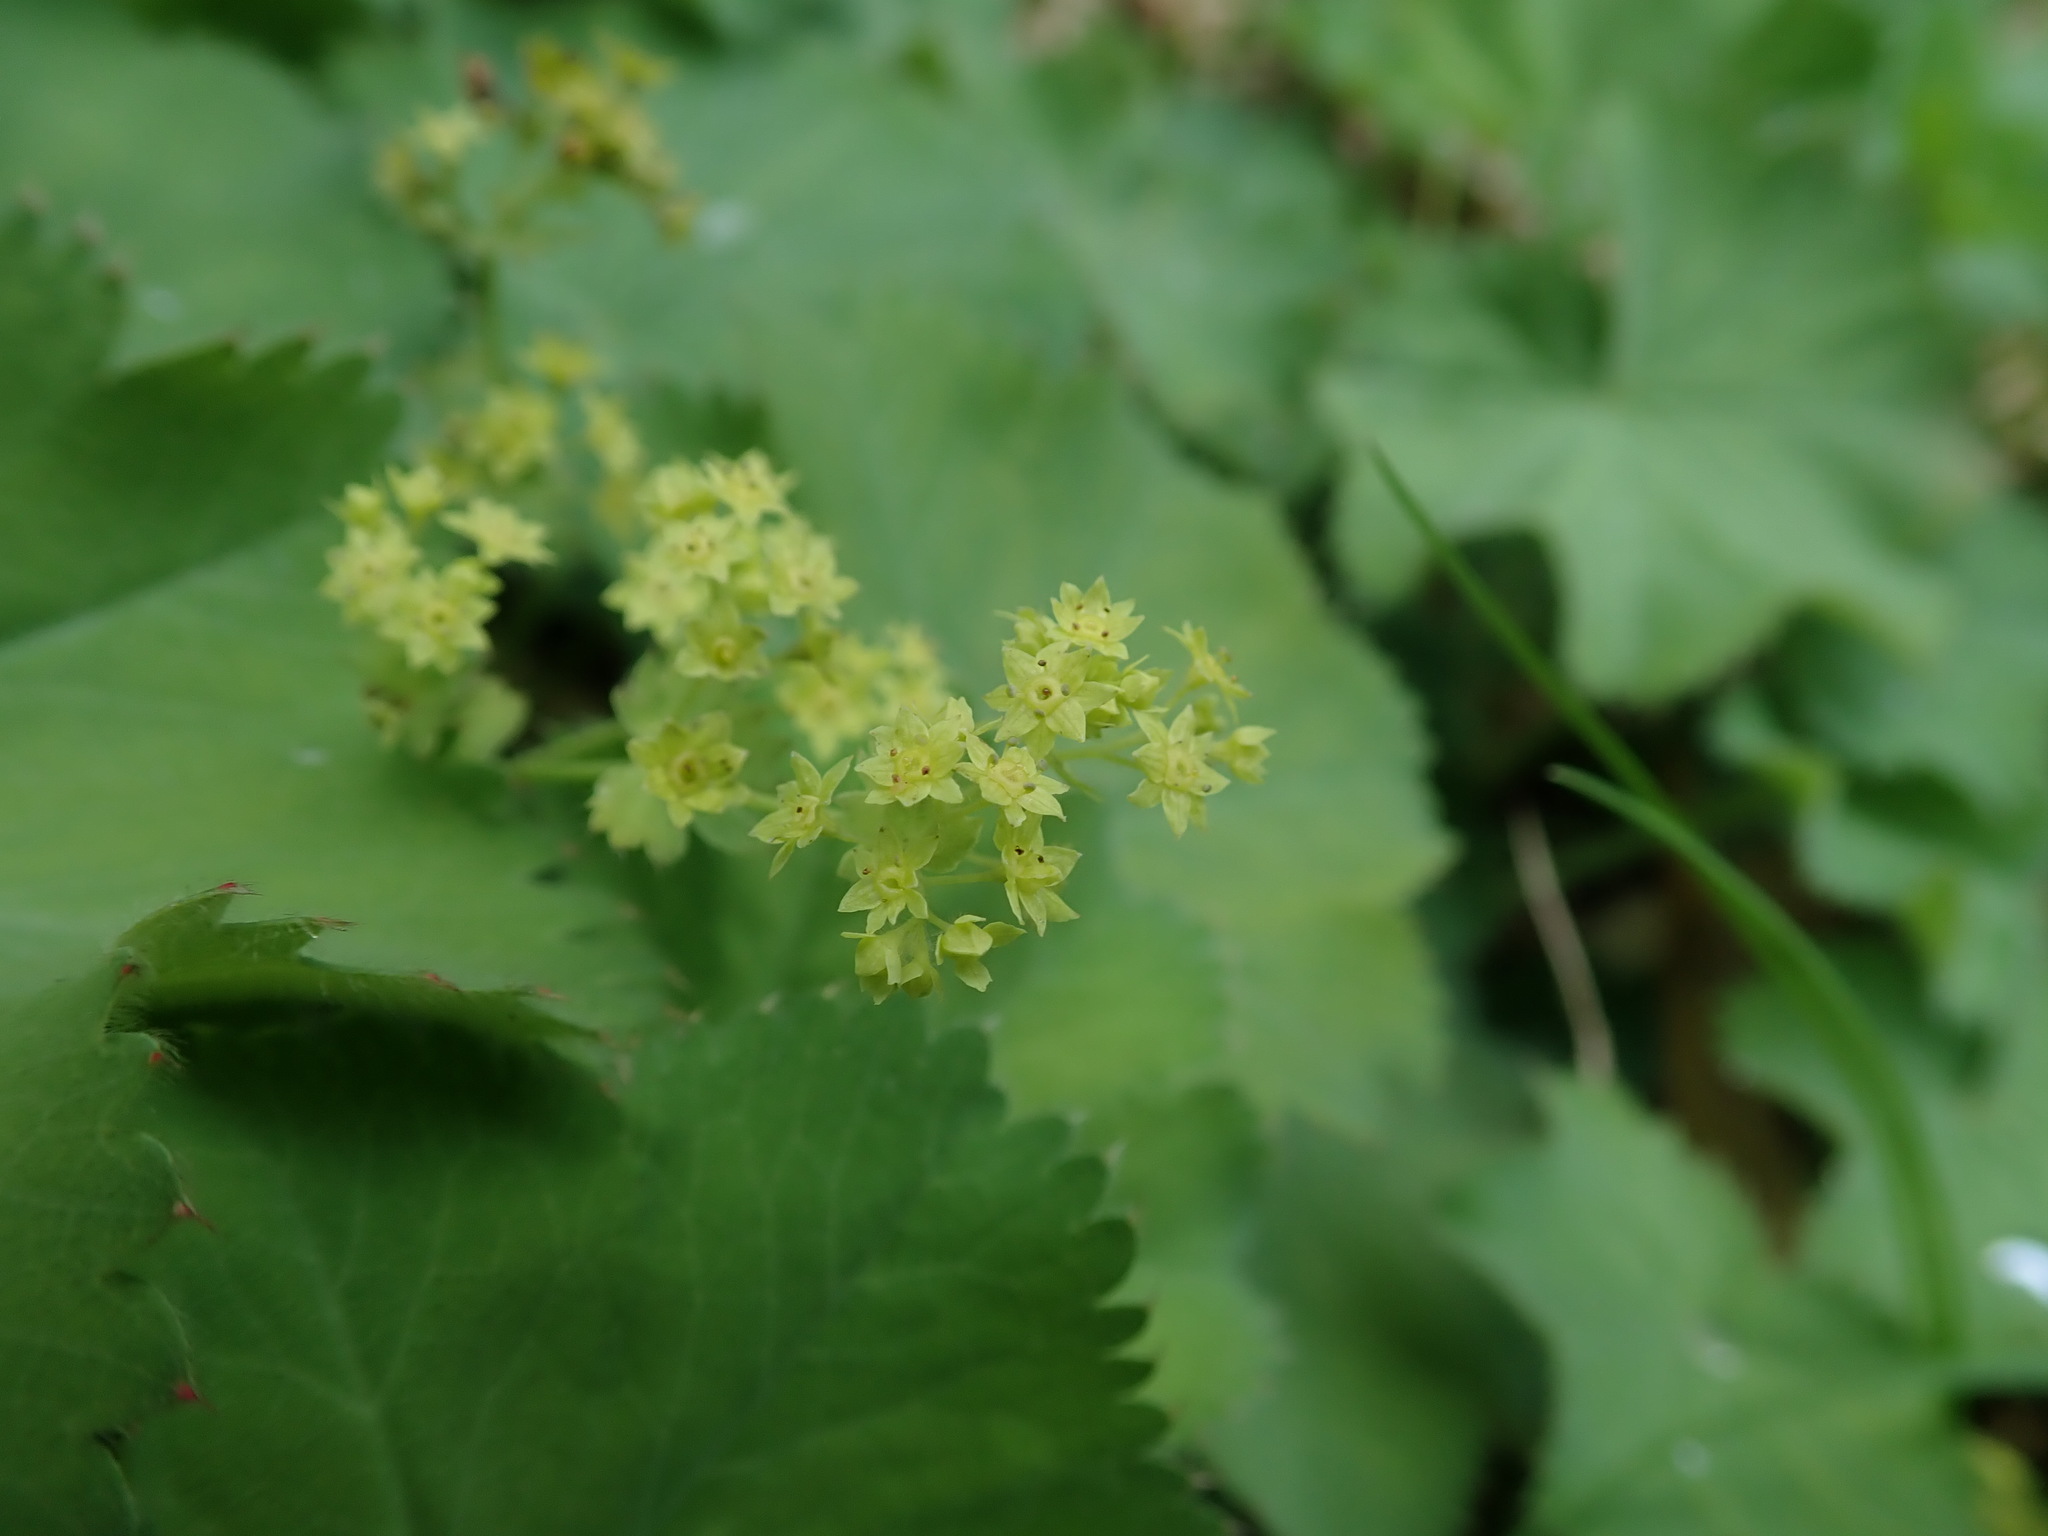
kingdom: Plantae
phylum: Tracheophyta
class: Magnoliopsida
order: Rosales
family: Rosaceae
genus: Alchemilla
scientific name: Alchemilla mollis
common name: Lady's-mantle
